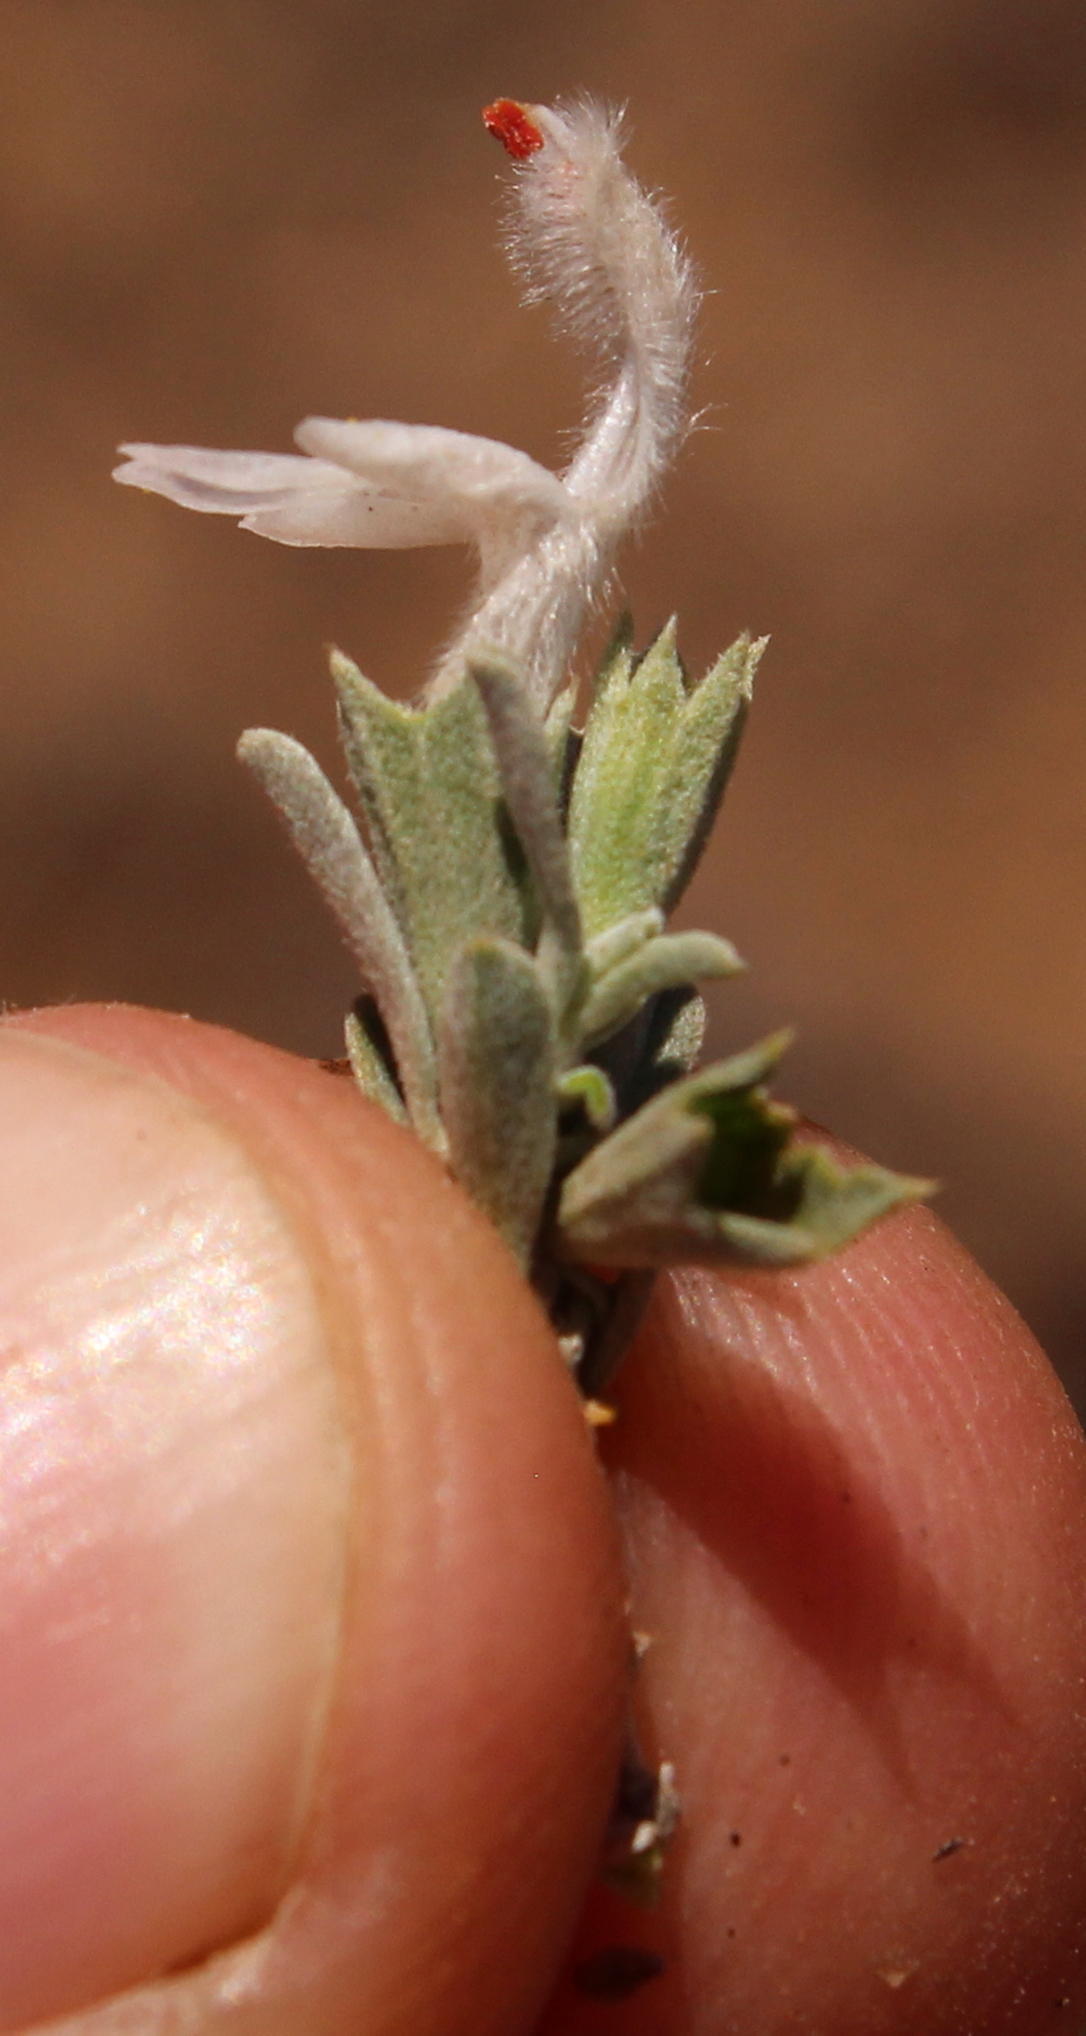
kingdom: Plantae
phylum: Tracheophyta
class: Magnoliopsida
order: Lamiales
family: Lamiaceae
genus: Leucas
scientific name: Leucas capensis
